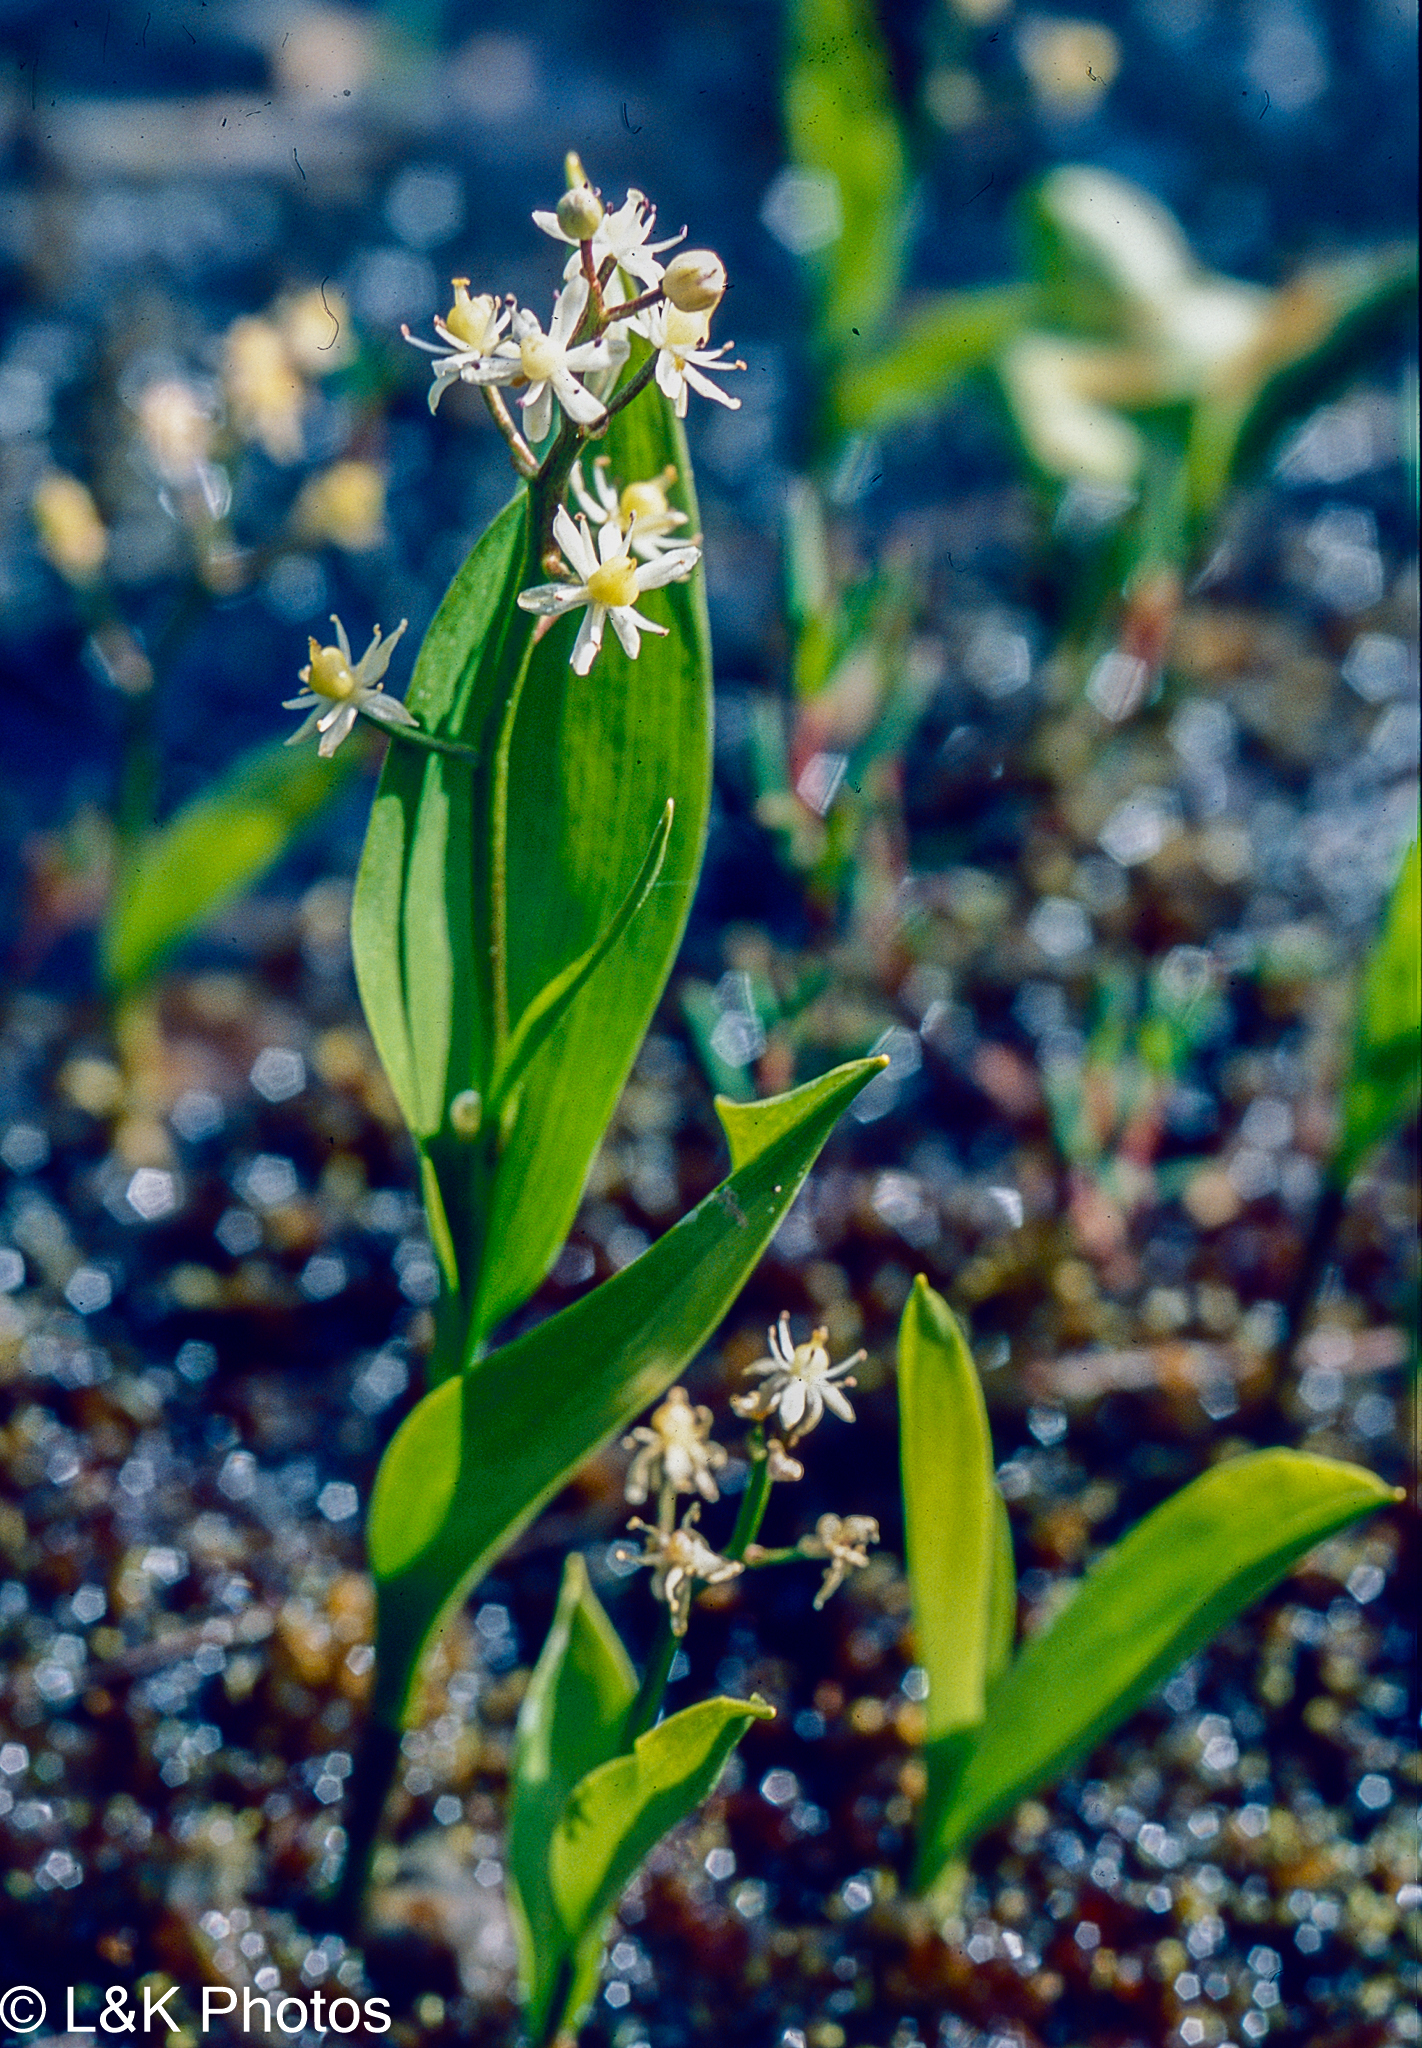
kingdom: Plantae
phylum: Tracheophyta
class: Liliopsida
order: Asparagales
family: Asparagaceae
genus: Maianthemum
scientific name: Maianthemum trifolium
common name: Swamp false solomon's seal
